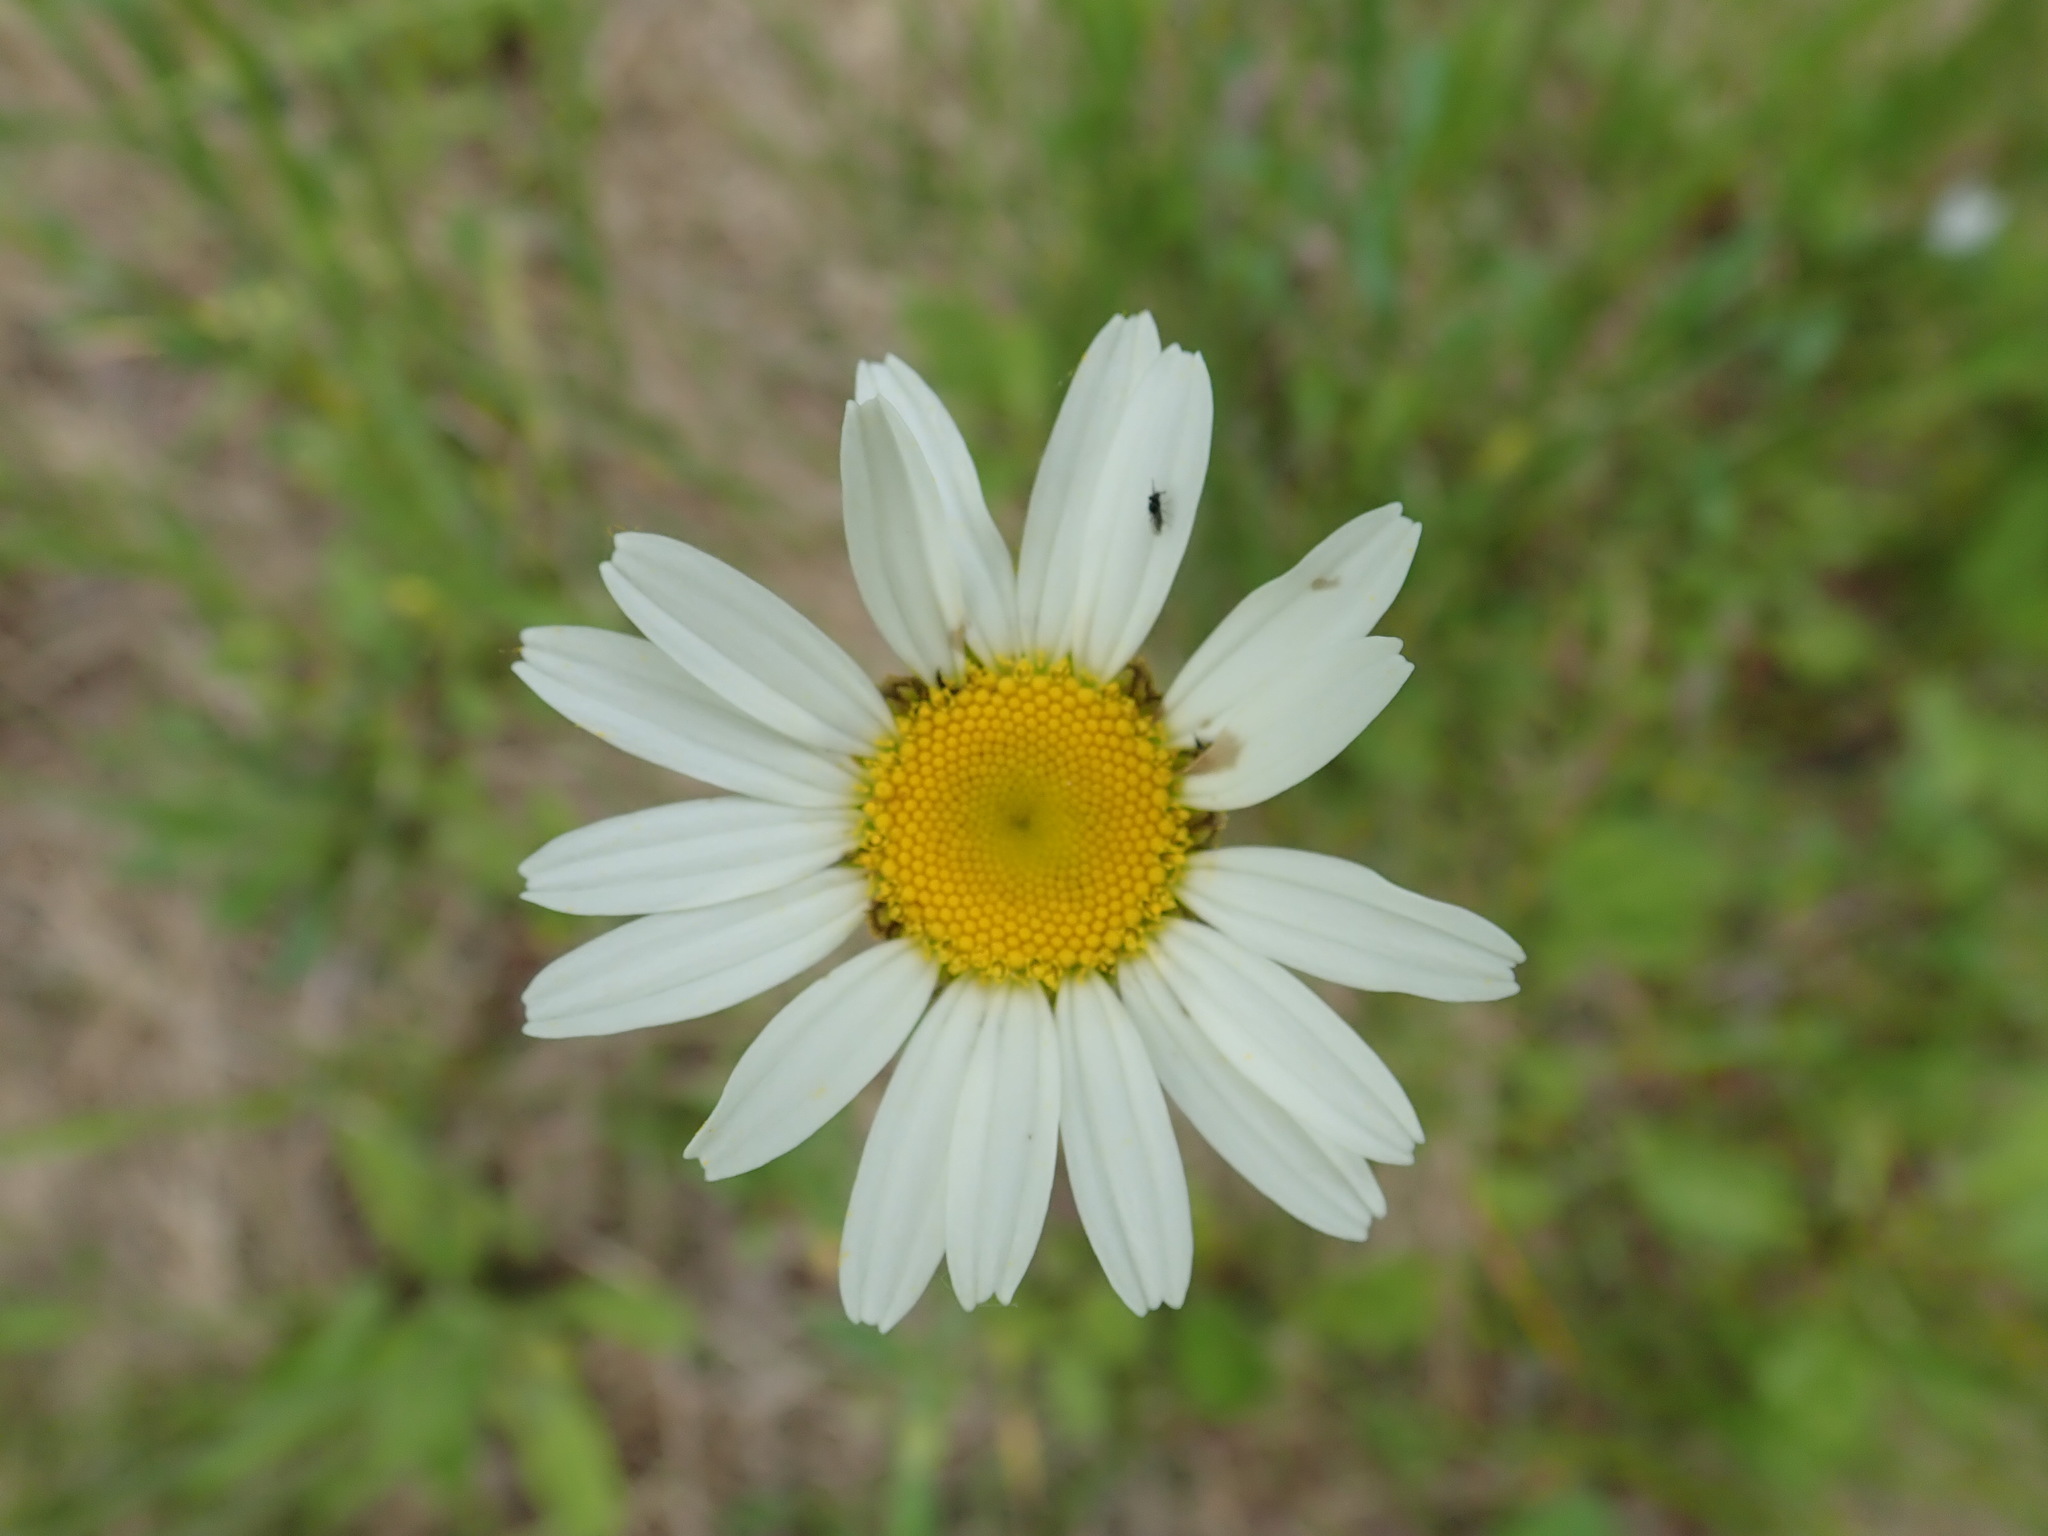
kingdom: Plantae
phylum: Tracheophyta
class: Magnoliopsida
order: Asterales
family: Asteraceae
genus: Leucanthemum
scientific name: Leucanthemum vulgare
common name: Oxeye daisy
